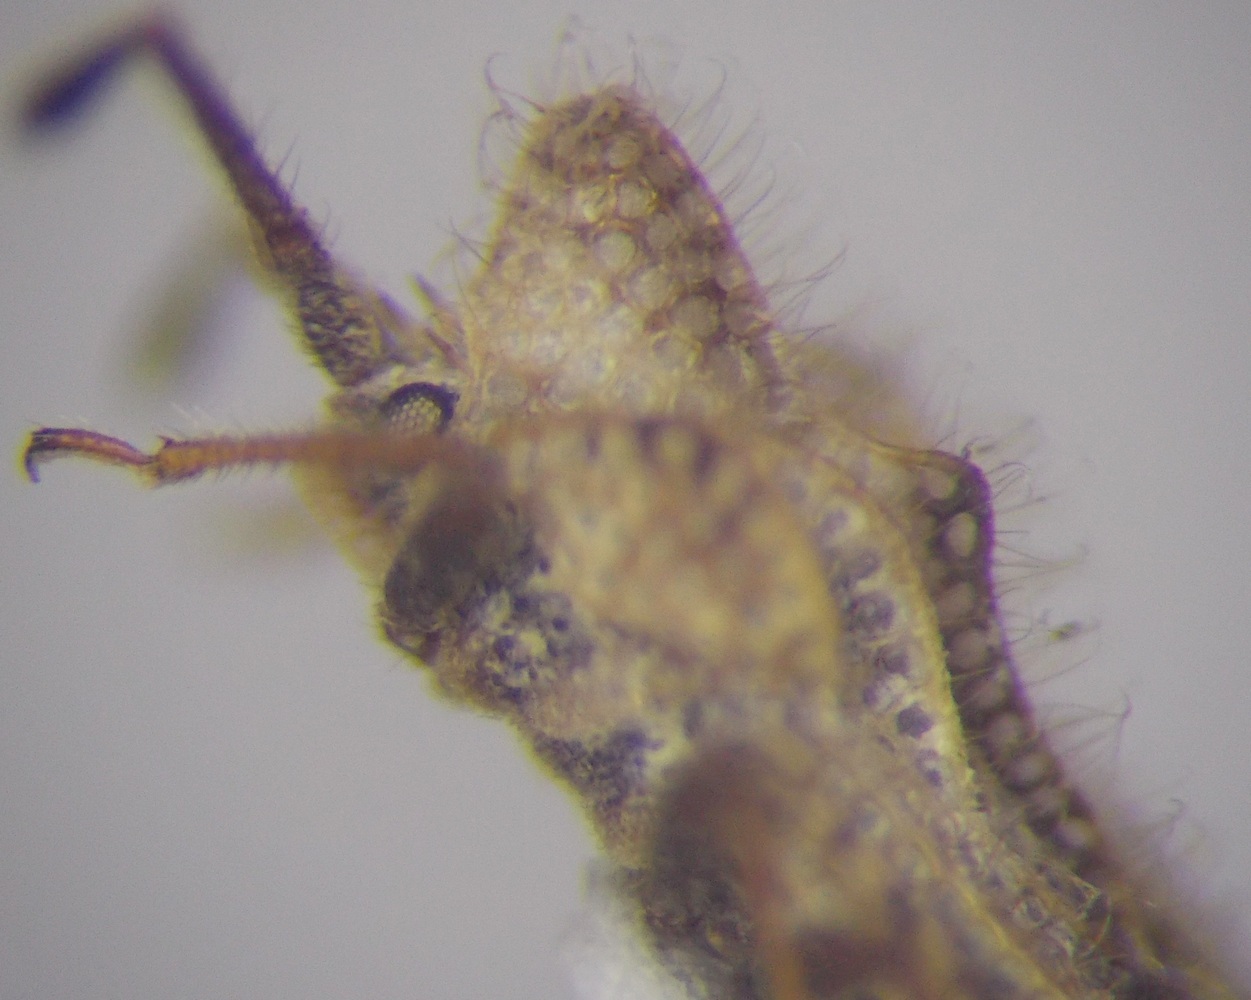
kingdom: Animalia
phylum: Arthropoda
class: Insecta
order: Hemiptera
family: Tingidae
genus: Lasiacantha
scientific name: Lasiacantha gracilis
